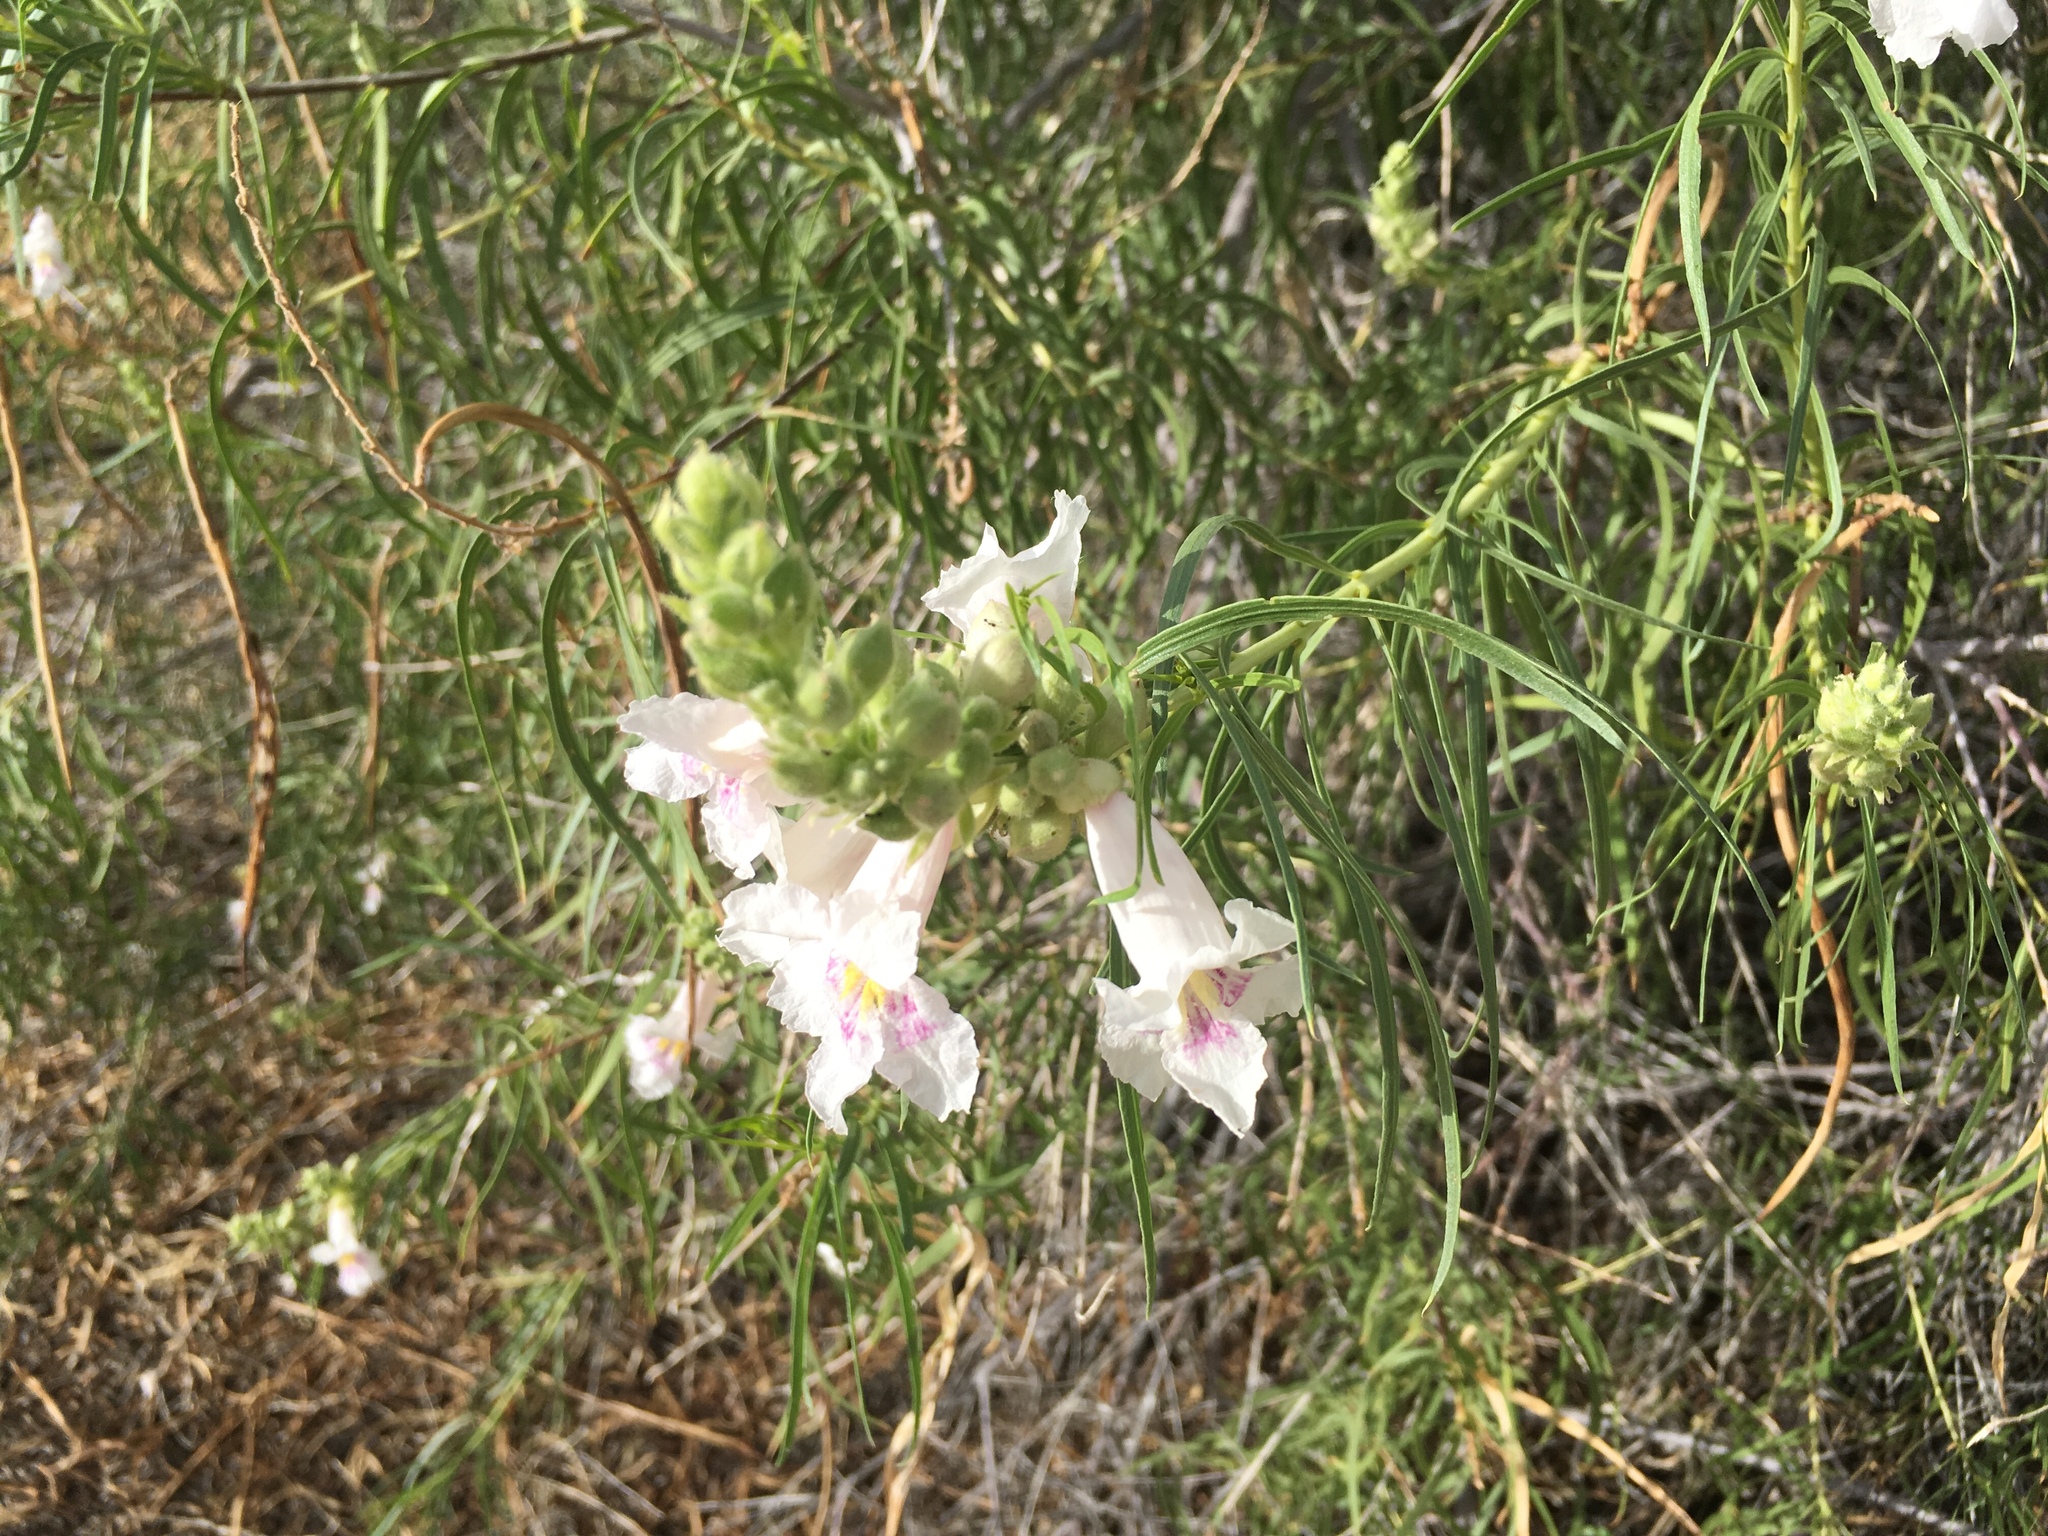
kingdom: Plantae
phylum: Tracheophyta
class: Magnoliopsida
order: Lamiales
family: Bignoniaceae
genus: Chilopsis
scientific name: Chilopsis linearis
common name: Desert-willow
